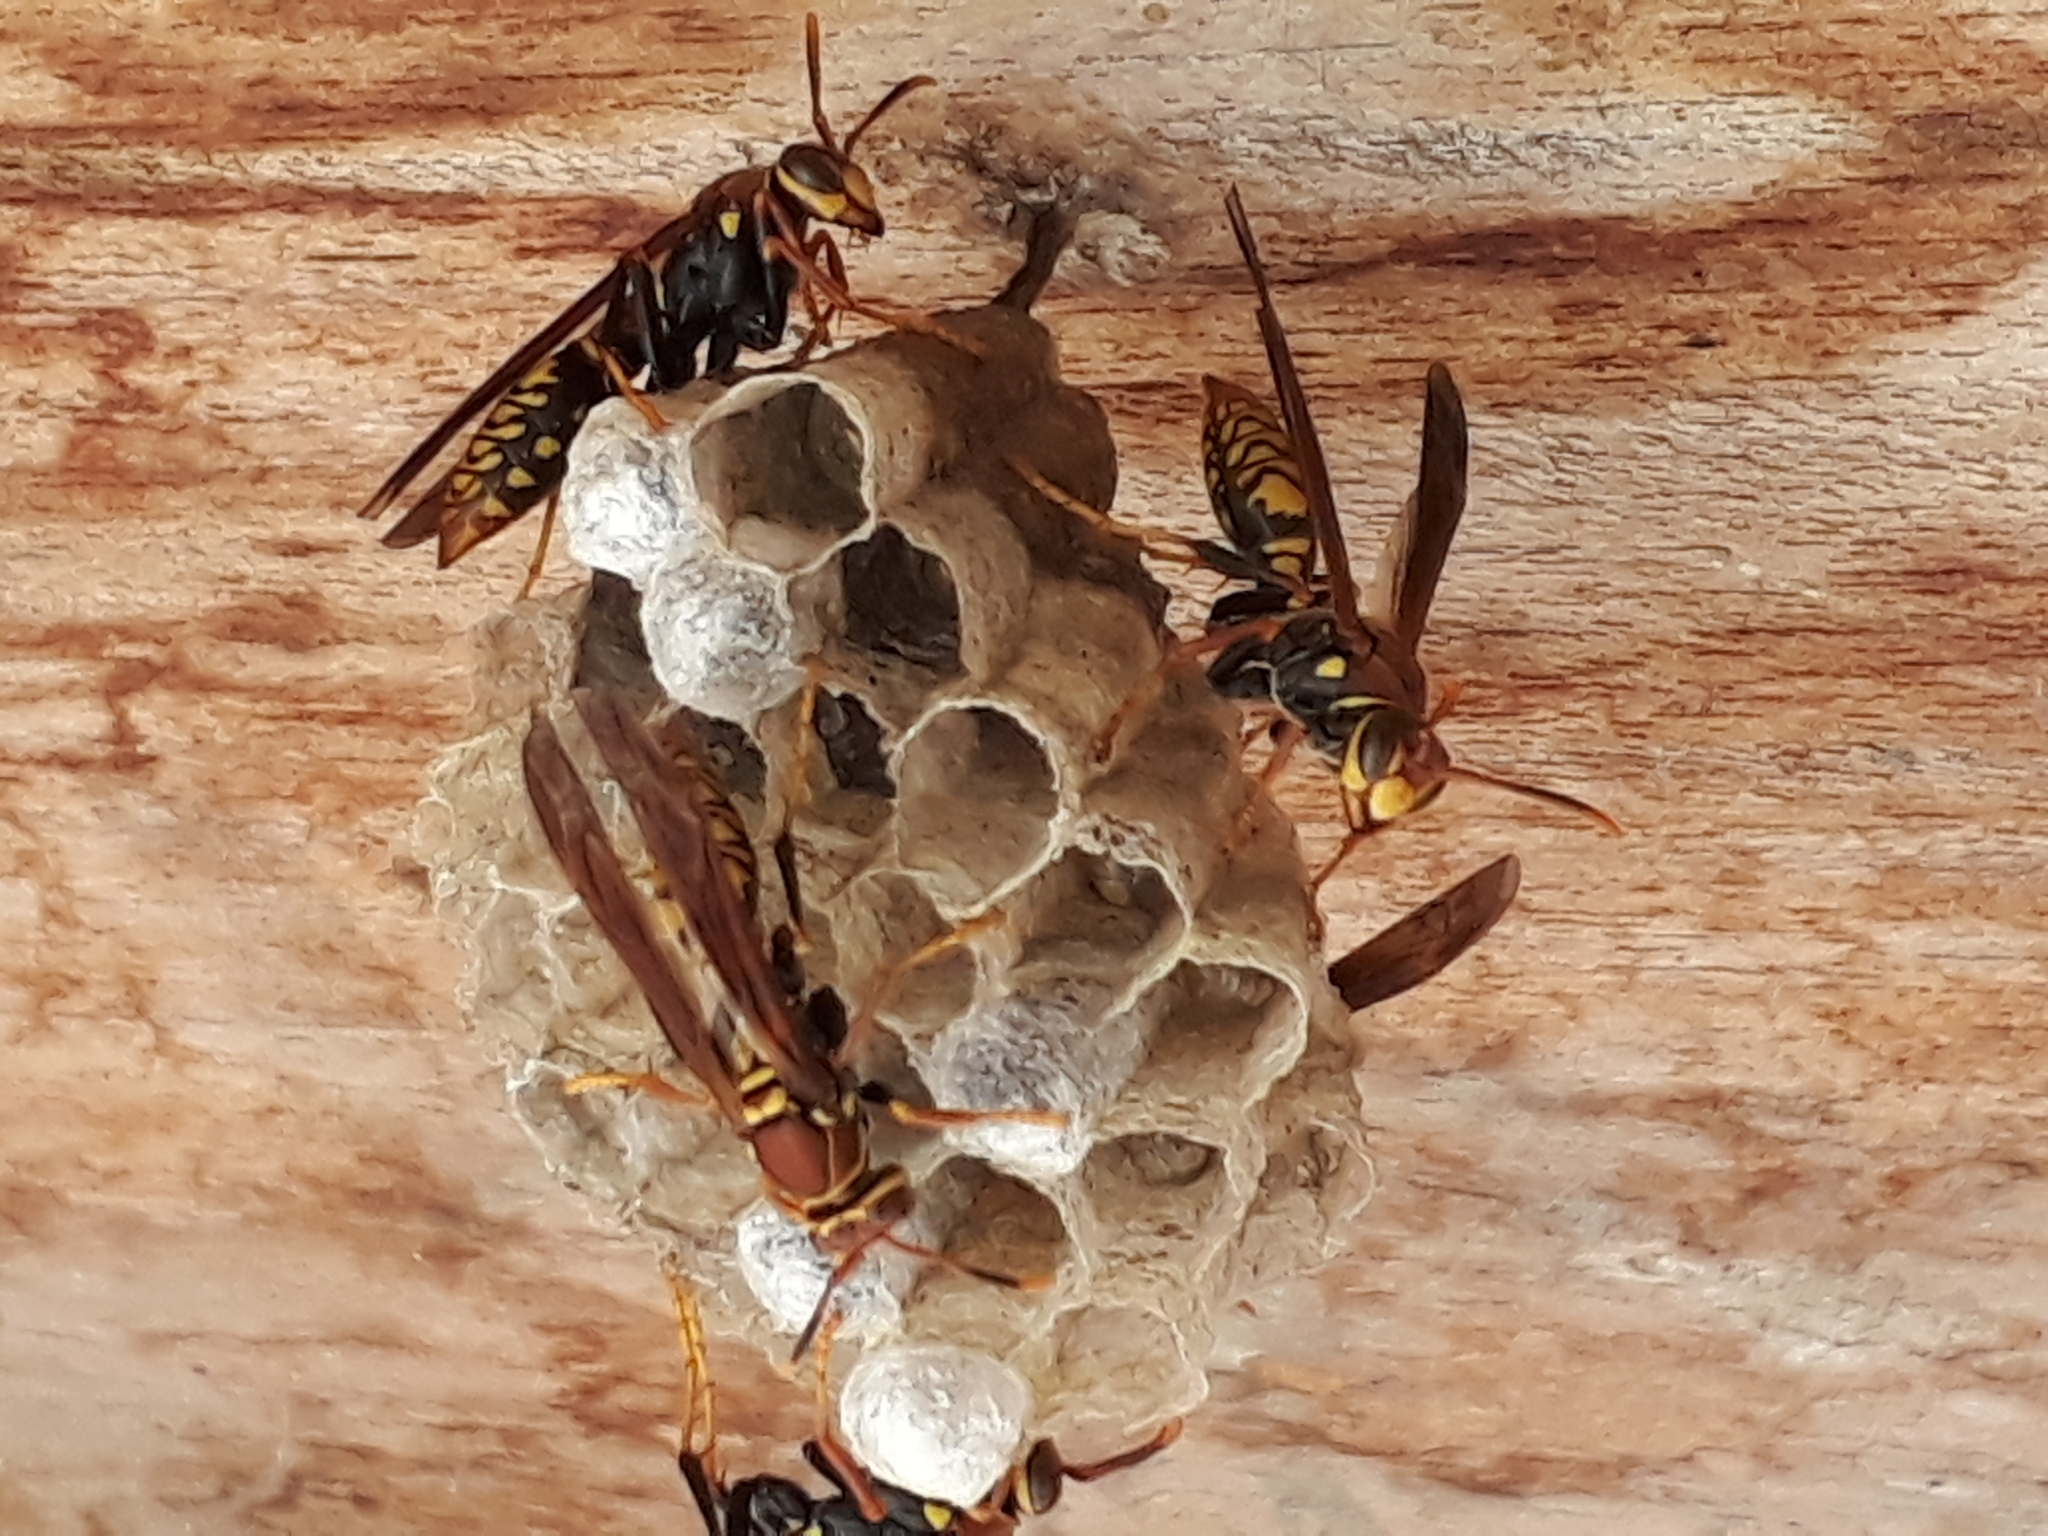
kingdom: Animalia
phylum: Arthropoda
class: Insecta
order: Hymenoptera
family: Eumenidae
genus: Polistes
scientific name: Polistes myersi
